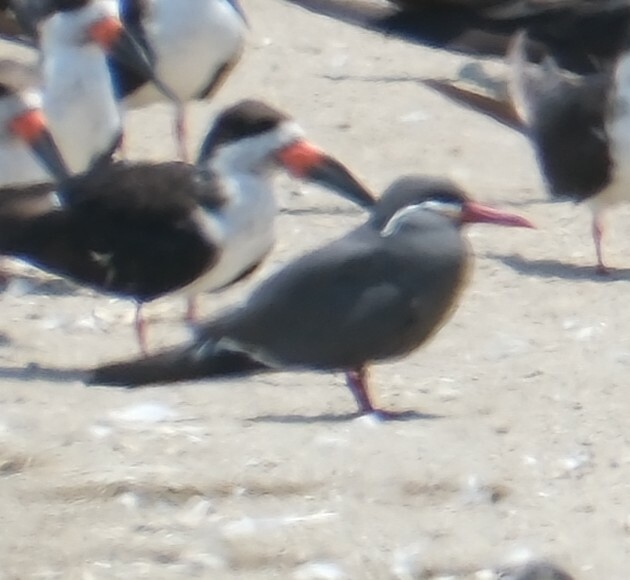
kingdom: Animalia
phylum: Chordata
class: Aves
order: Charadriiformes
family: Laridae
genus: Larosterna
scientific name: Larosterna inca
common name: Inca tern
